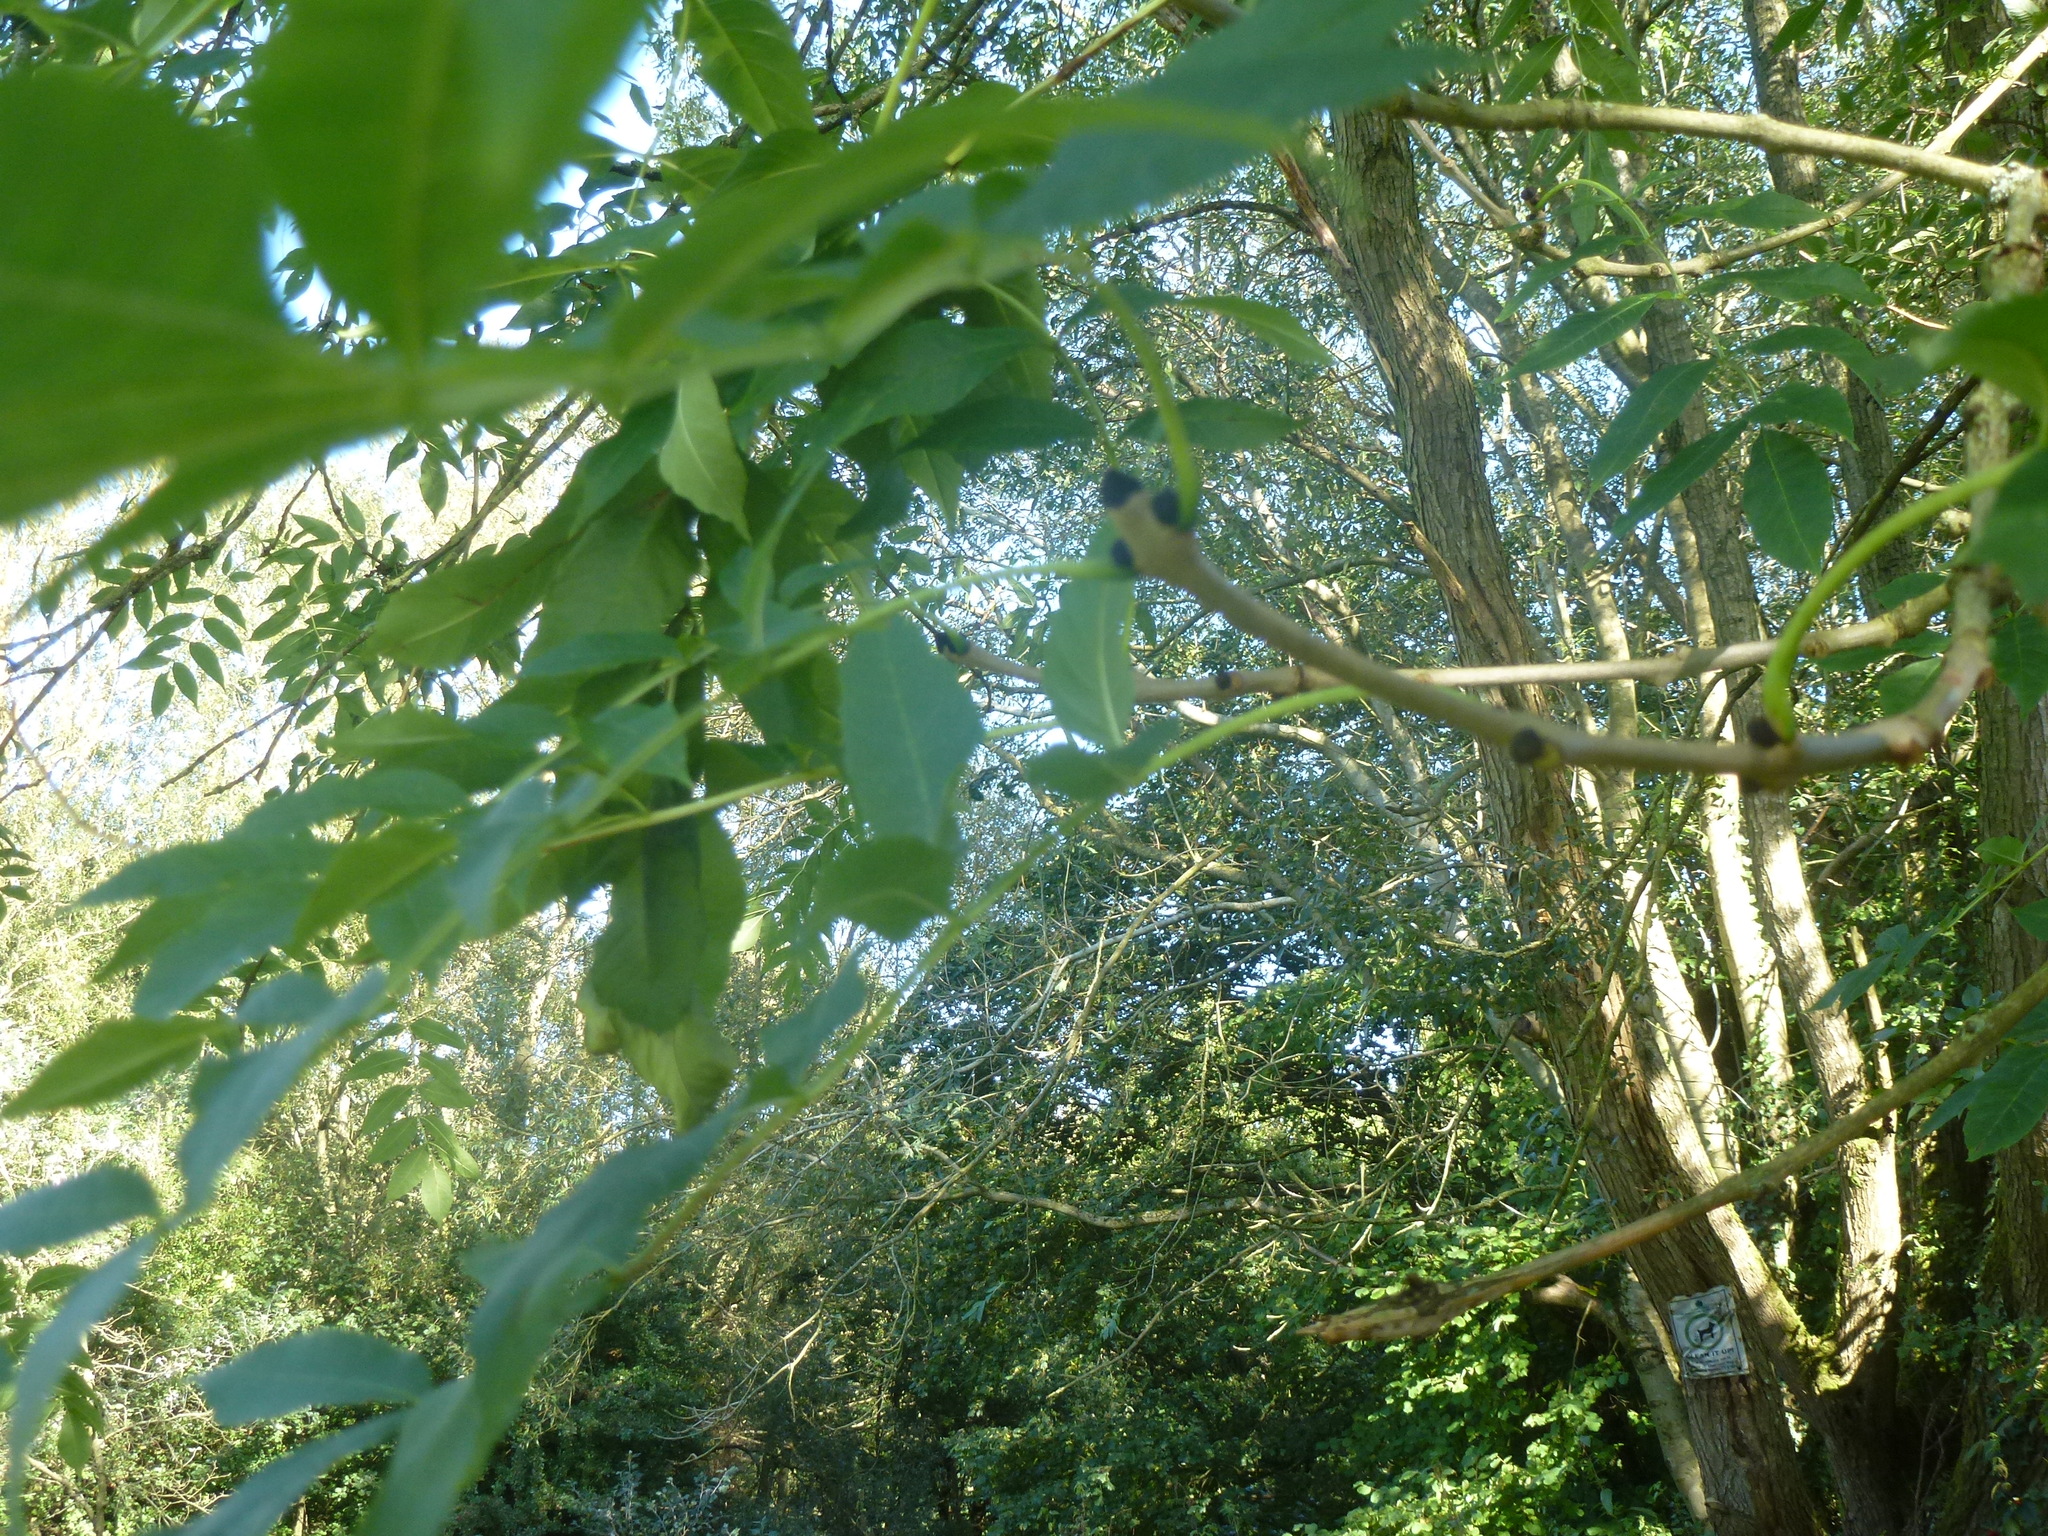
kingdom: Plantae
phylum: Tracheophyta
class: Magnoliopsida
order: Lamiales
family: Oleaceae
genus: Fraxinus
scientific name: Fraxinus excelsior
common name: European ash
